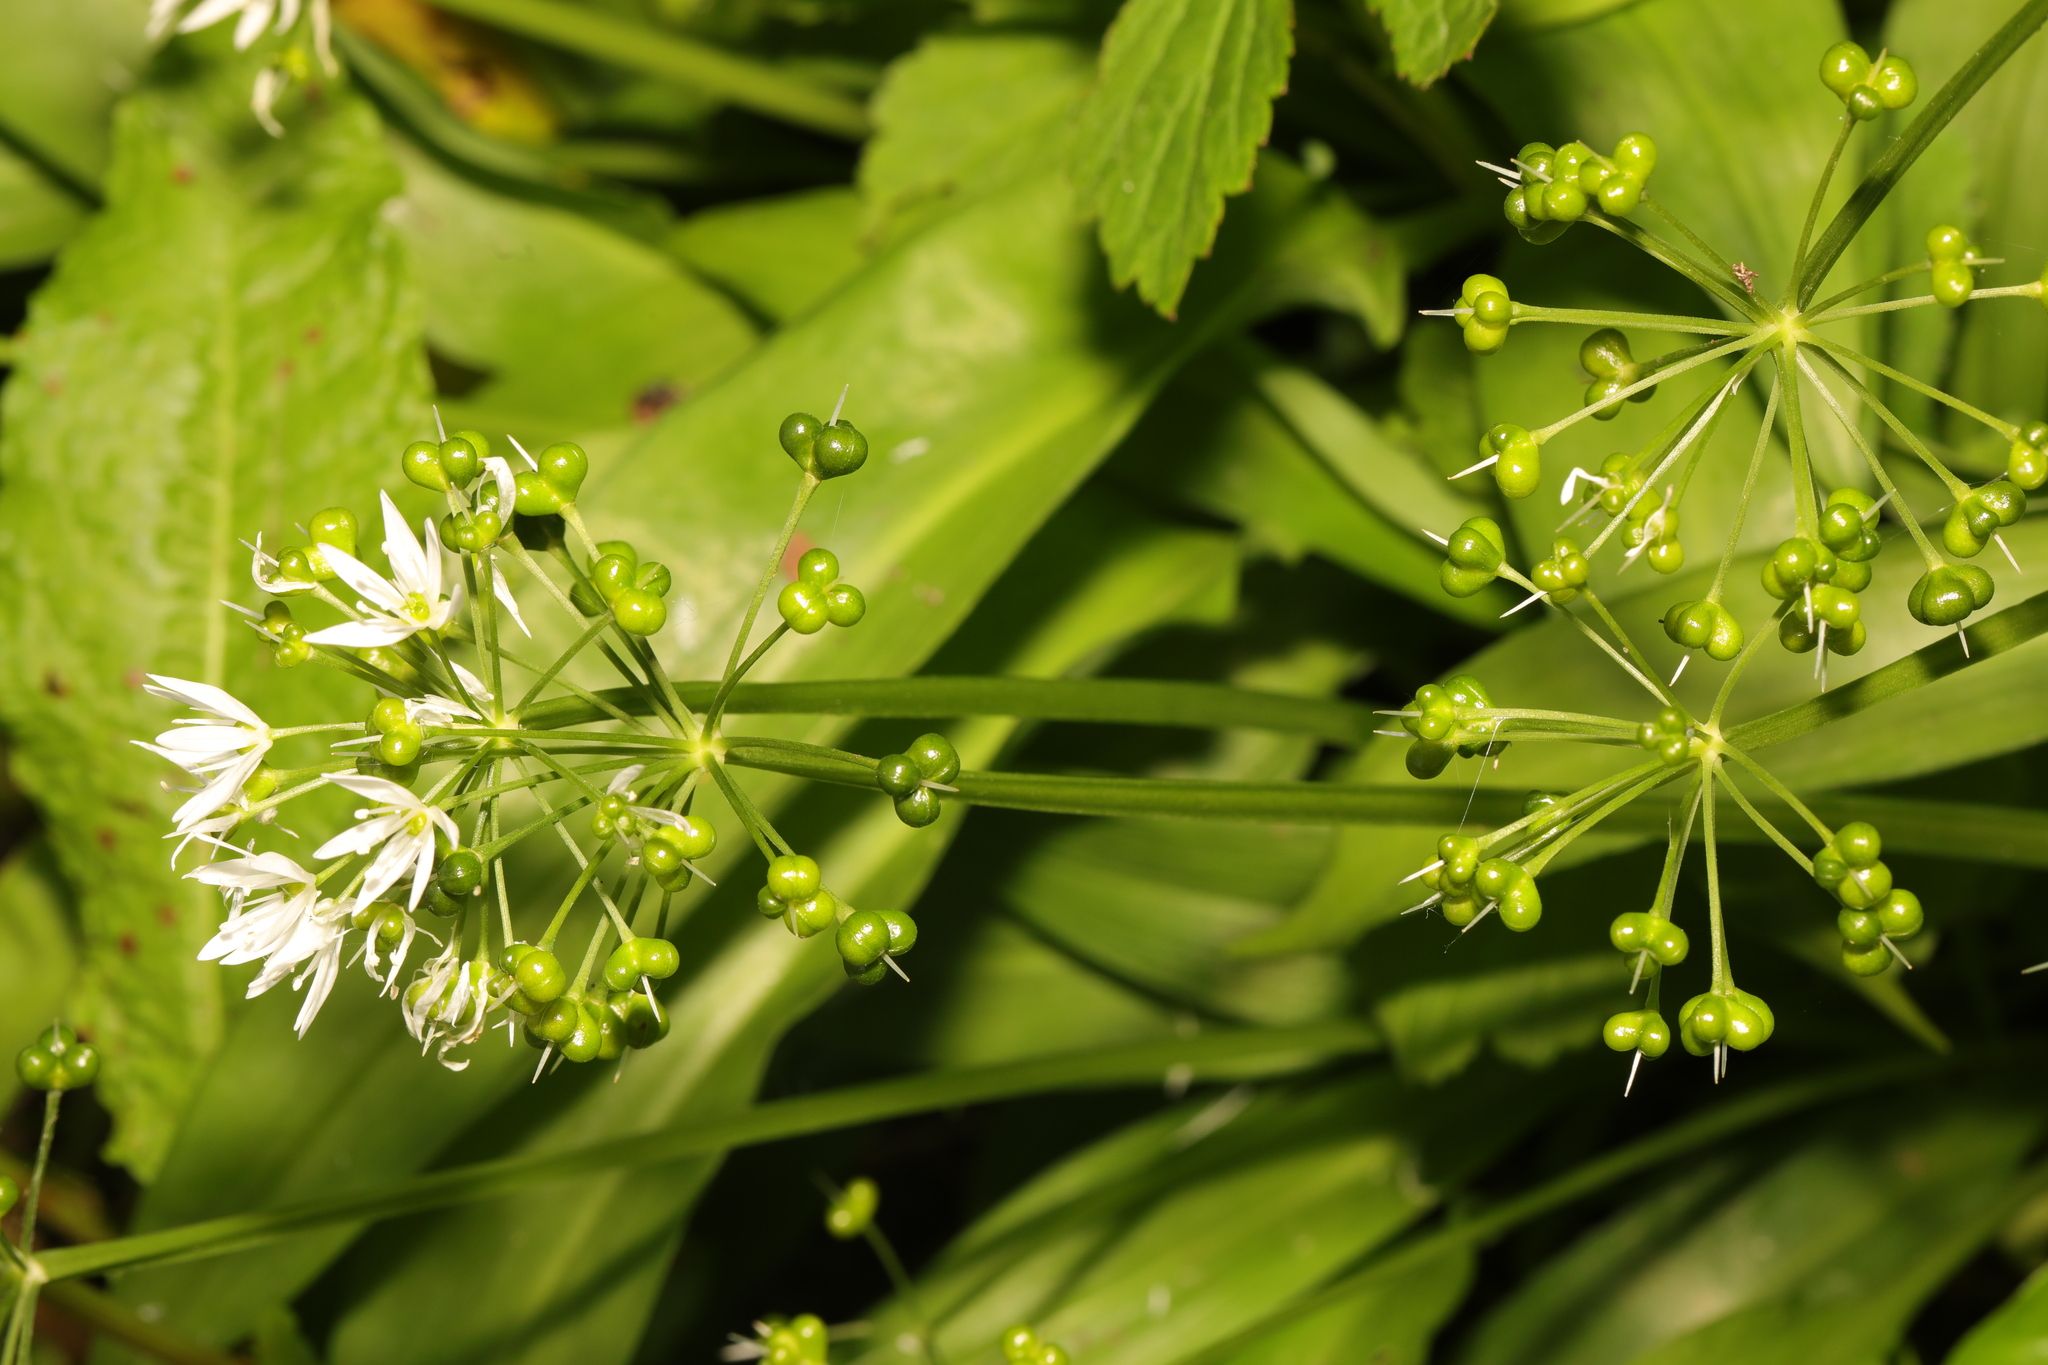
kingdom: Plantae
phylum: Tracheophyta
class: Liliopsida
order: Asparagales
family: Amaryllidaceae
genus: Allium
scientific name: Allium ursinum
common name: Ramsons
